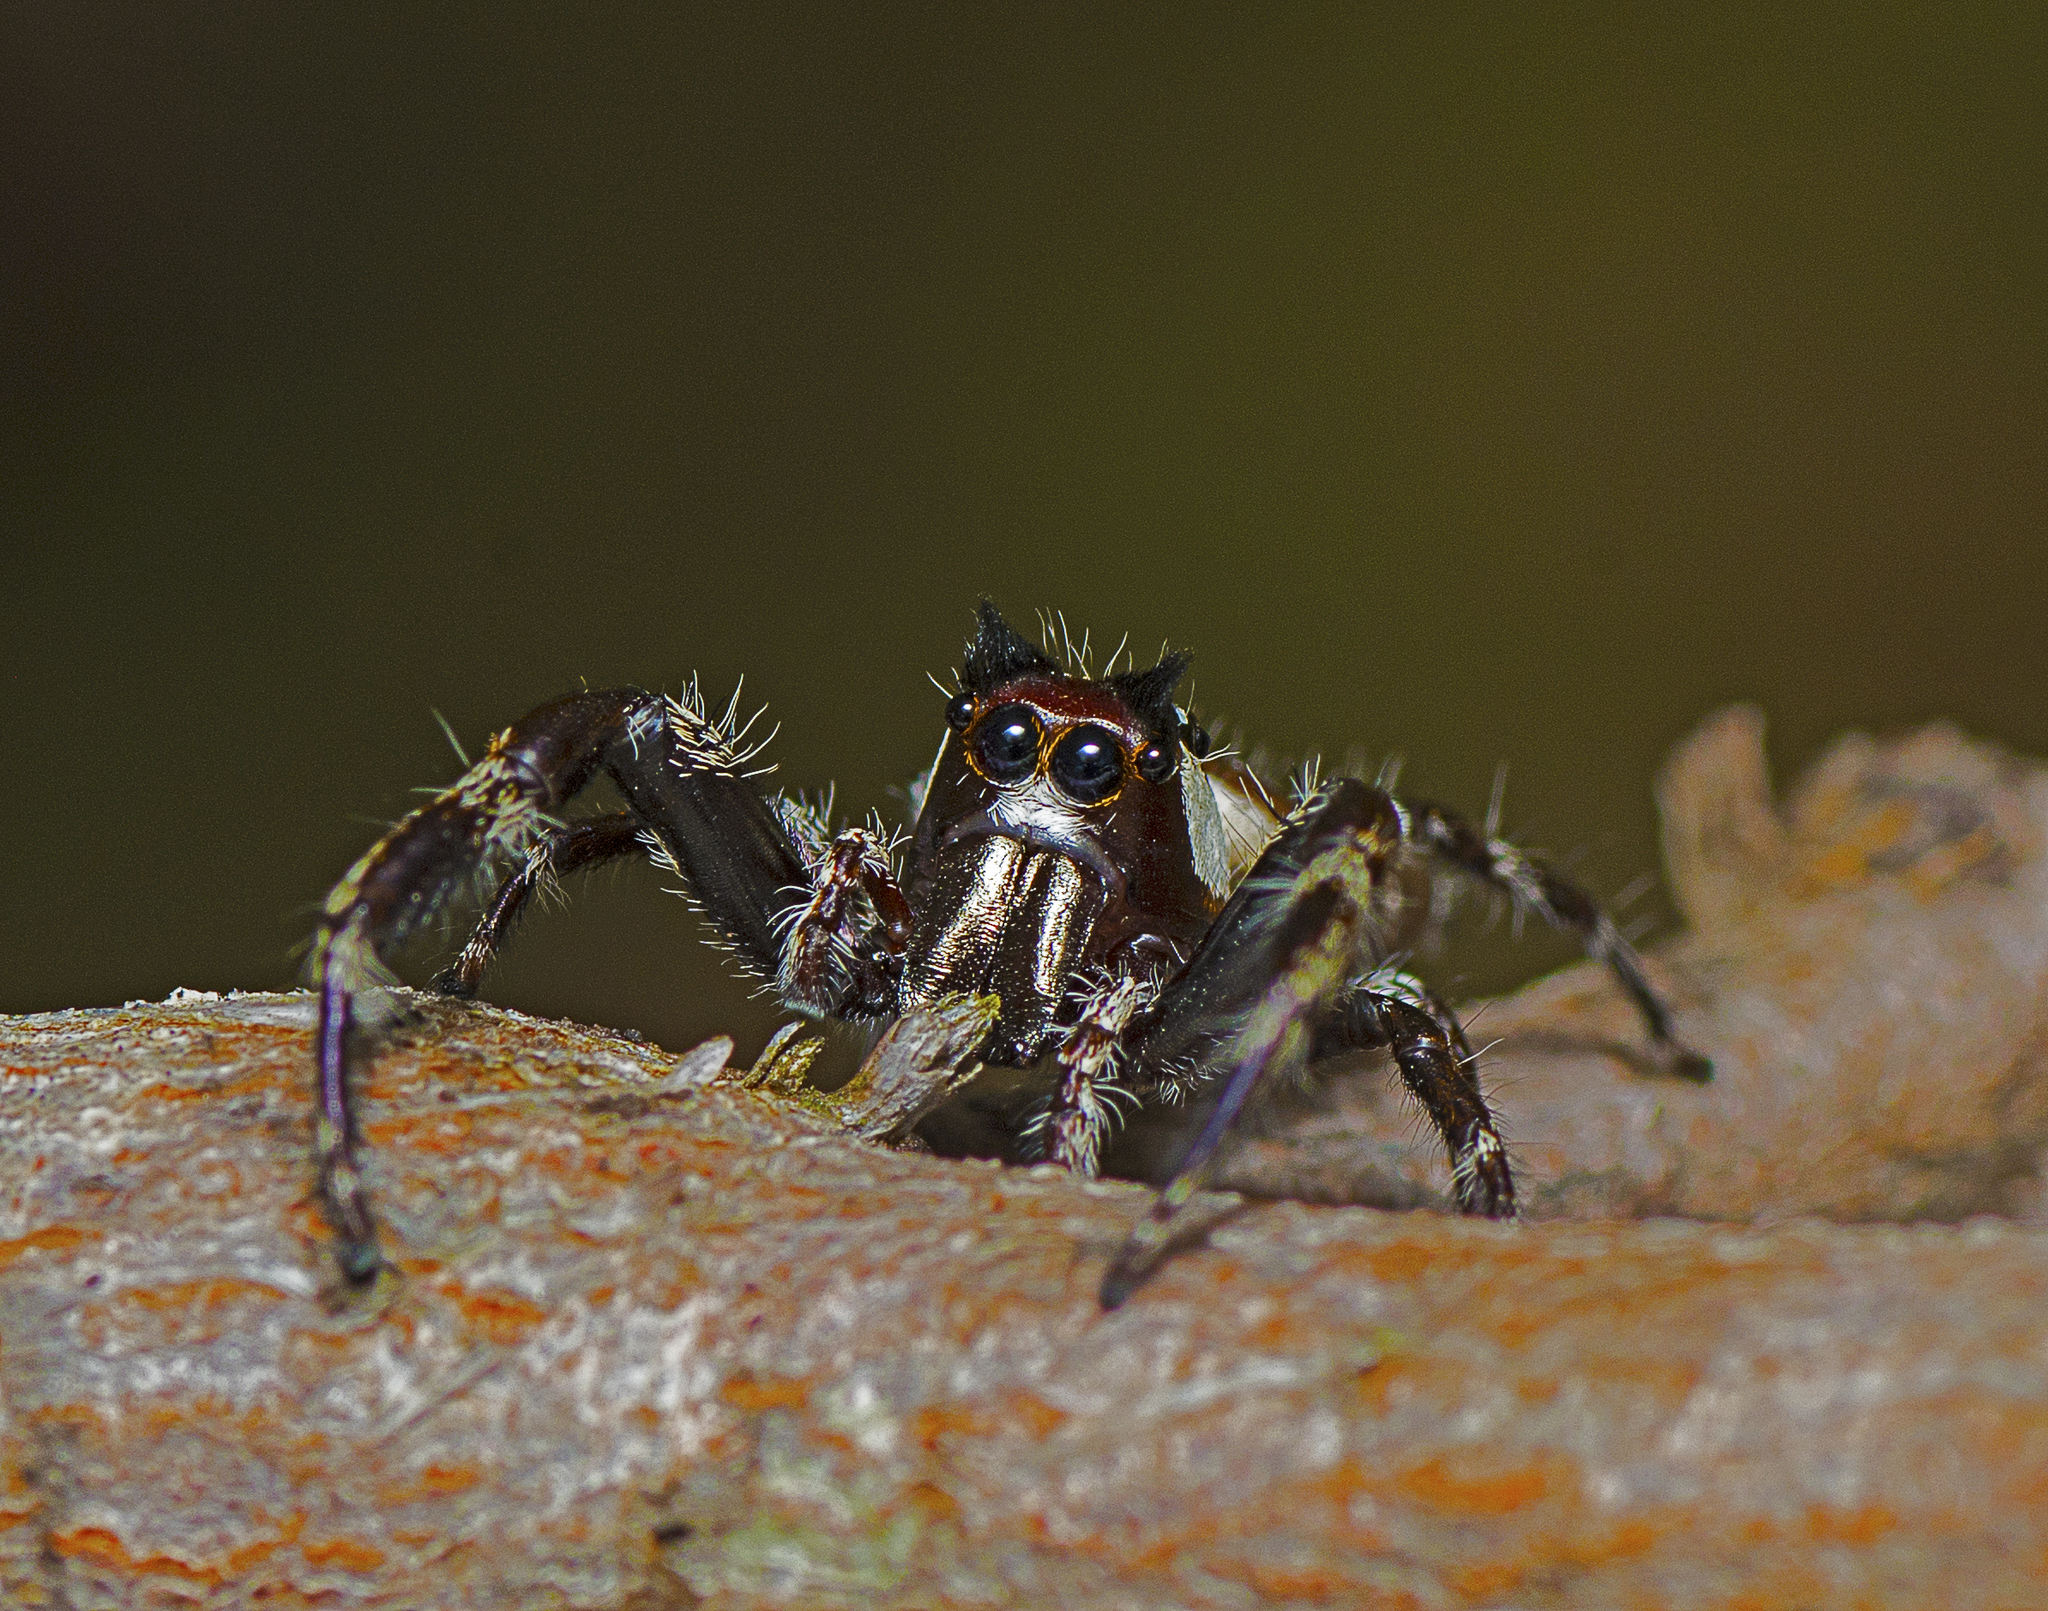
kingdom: Animalia
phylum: Arthropoda
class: Arachnida
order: Araneae
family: Salticidae
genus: Sandalodes
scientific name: Sandalodes bipenicillatus
